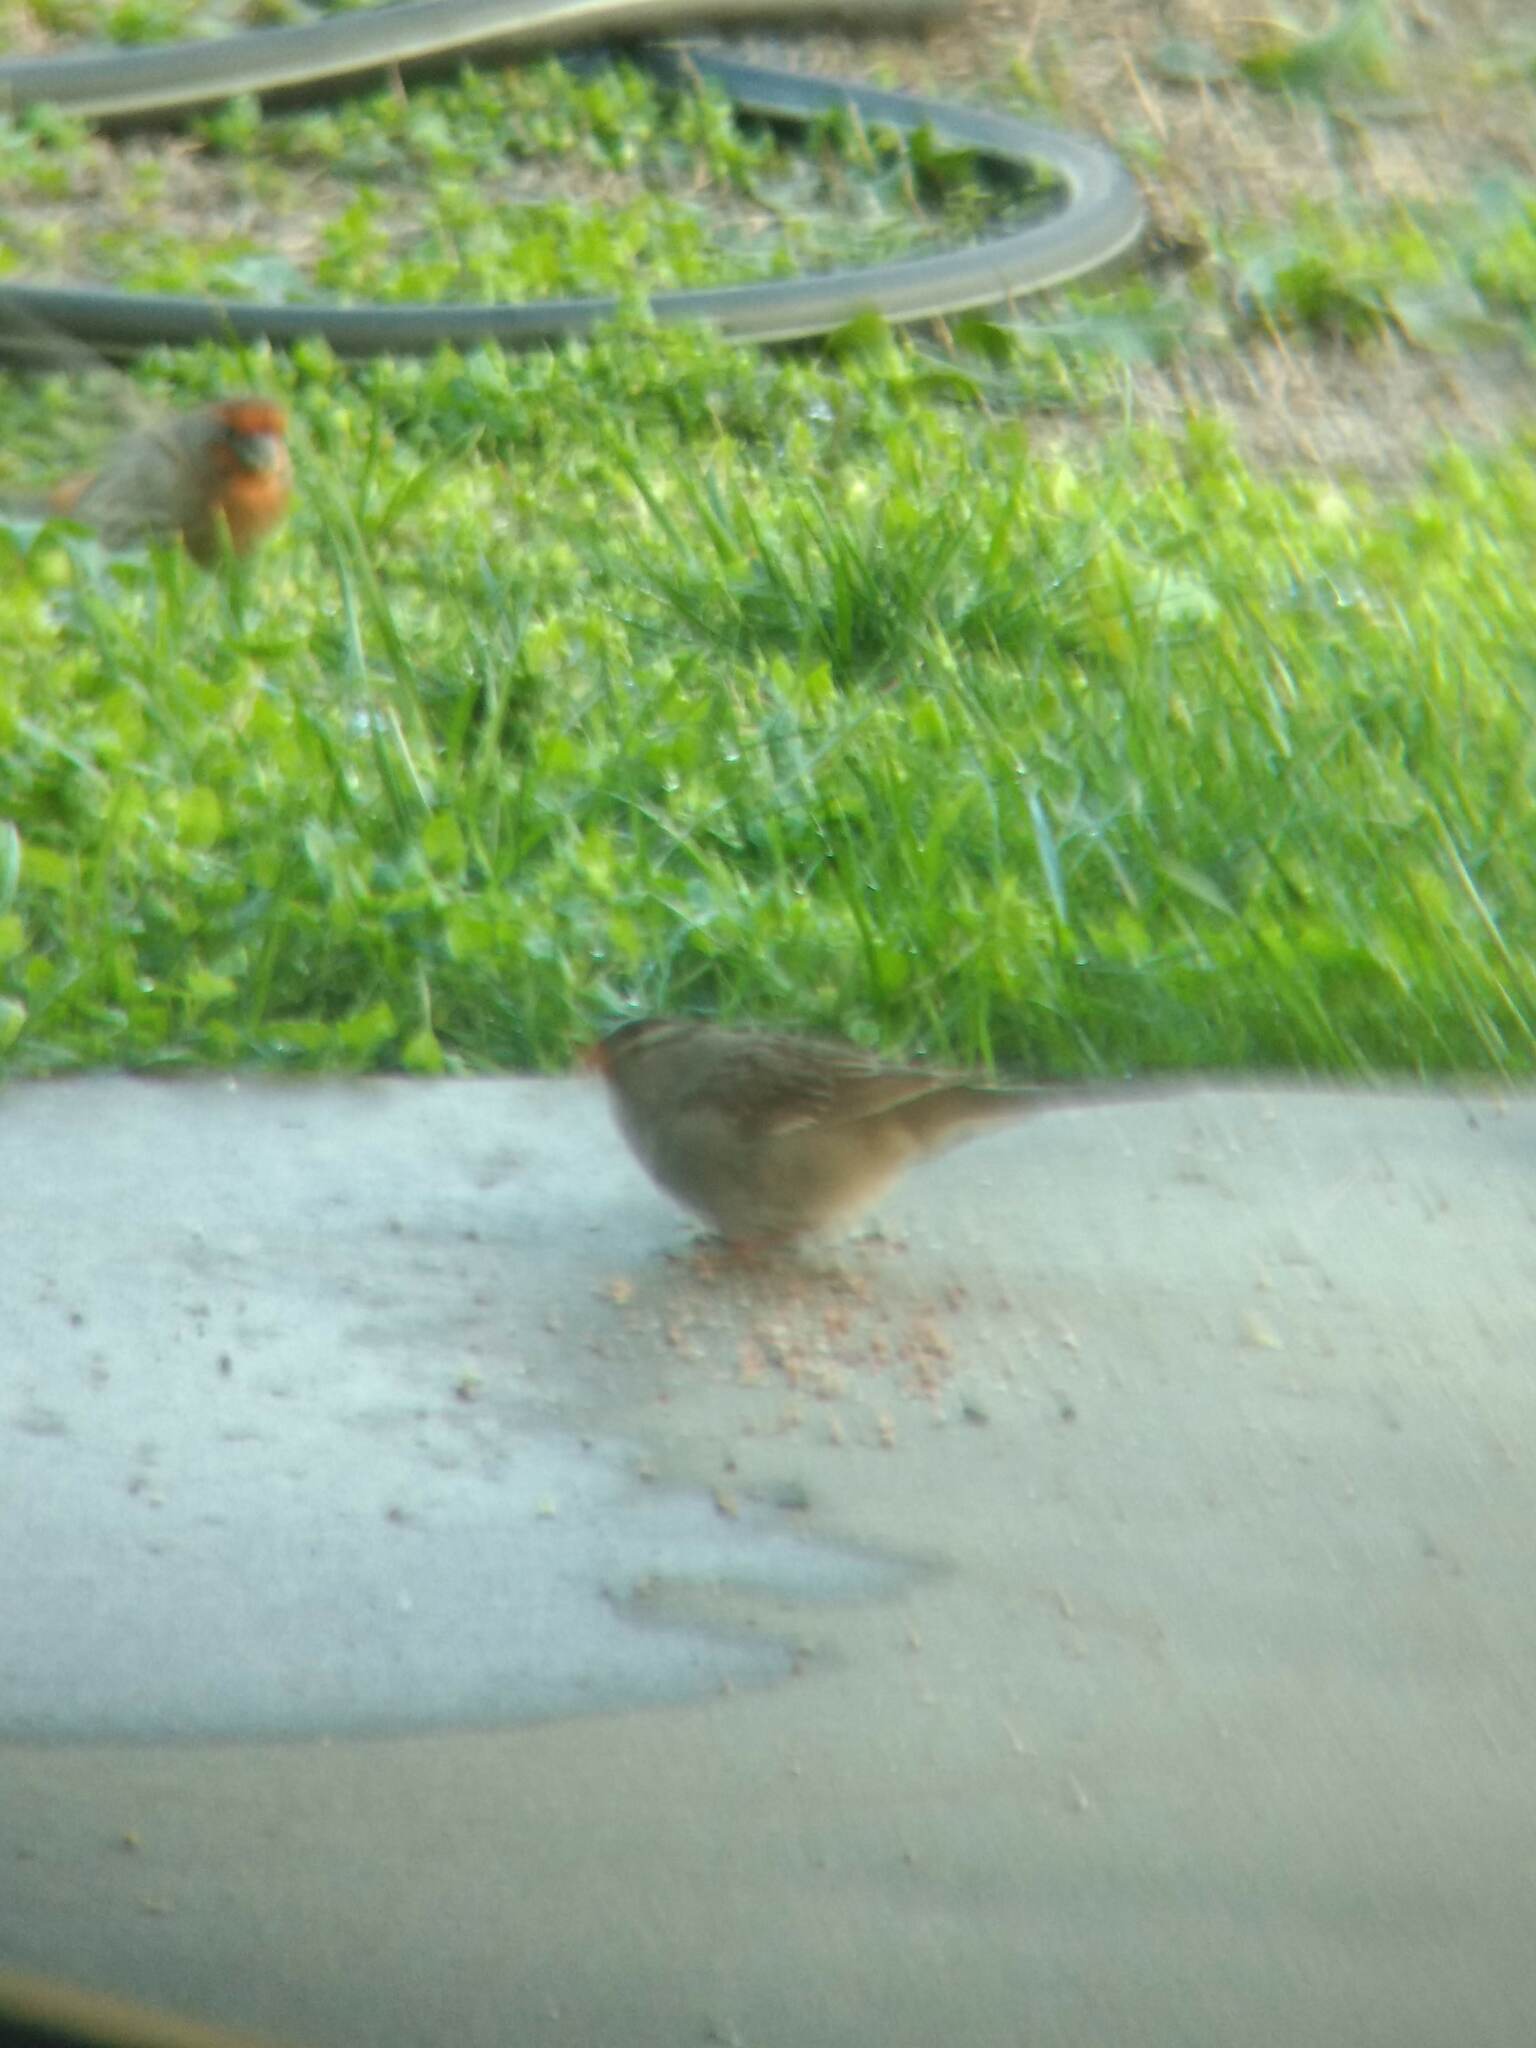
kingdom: Animalia
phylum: Chordata
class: Aves
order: Passeriformes
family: Passerellidae
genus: Zonotrichia
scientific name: Zonotrichia leucophrys
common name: White-crowned sparrow
